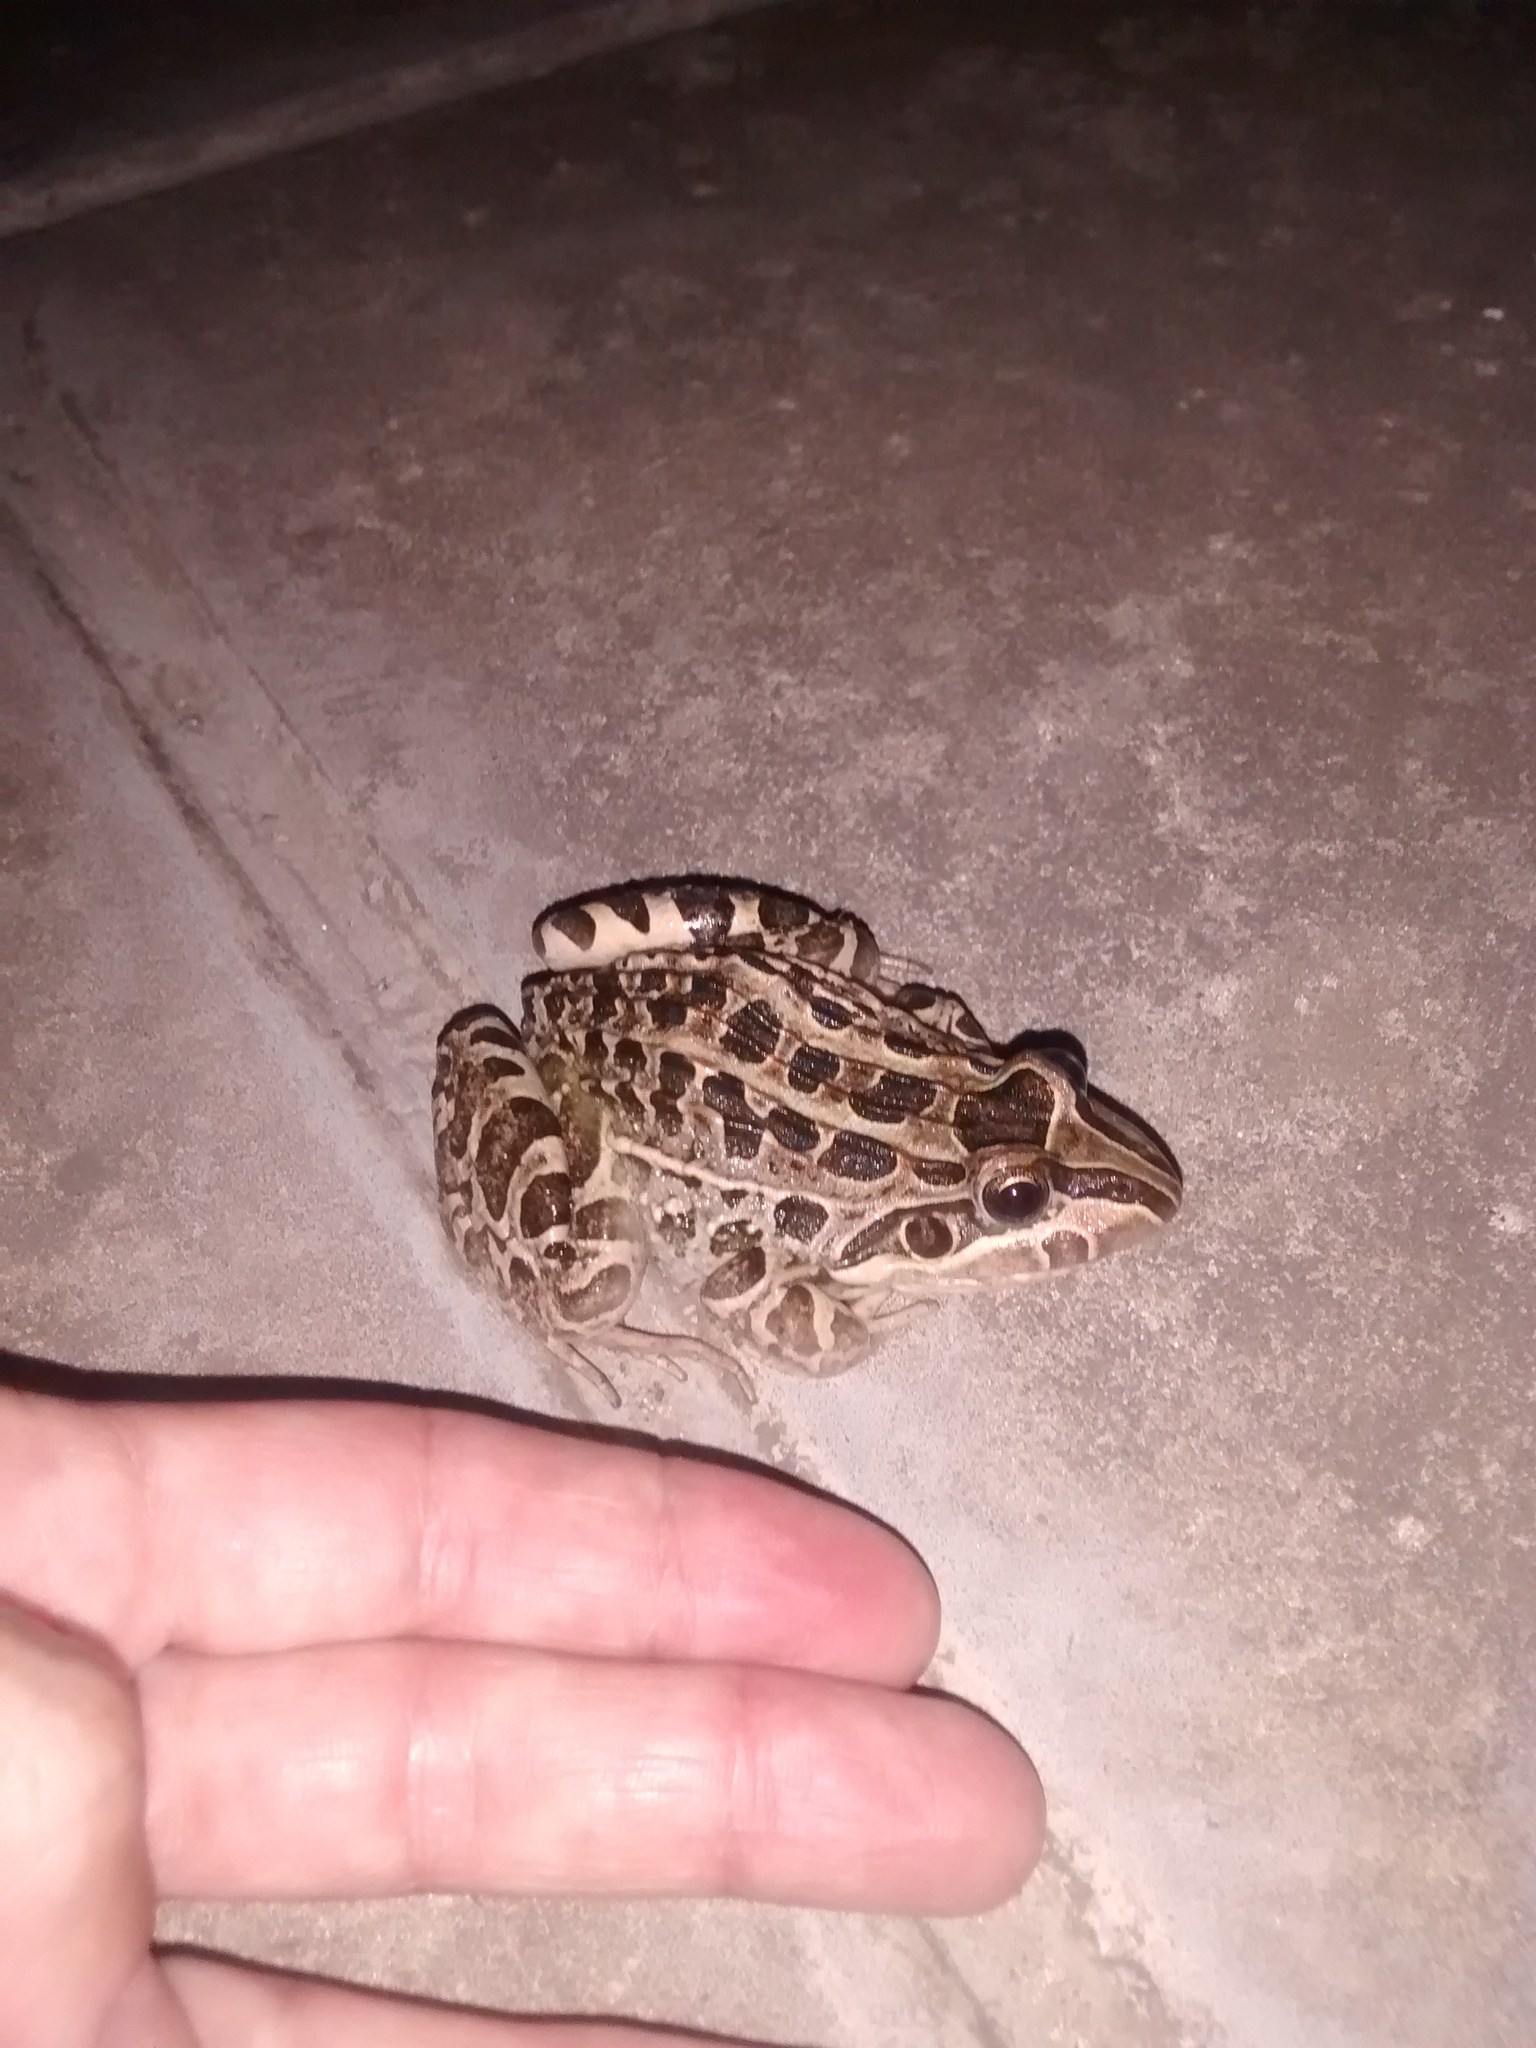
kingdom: Animalia
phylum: Chordata
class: Amphibia
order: Anura
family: Leptodactylidae
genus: Leptodactylus
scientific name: Leptodactylus luctator
